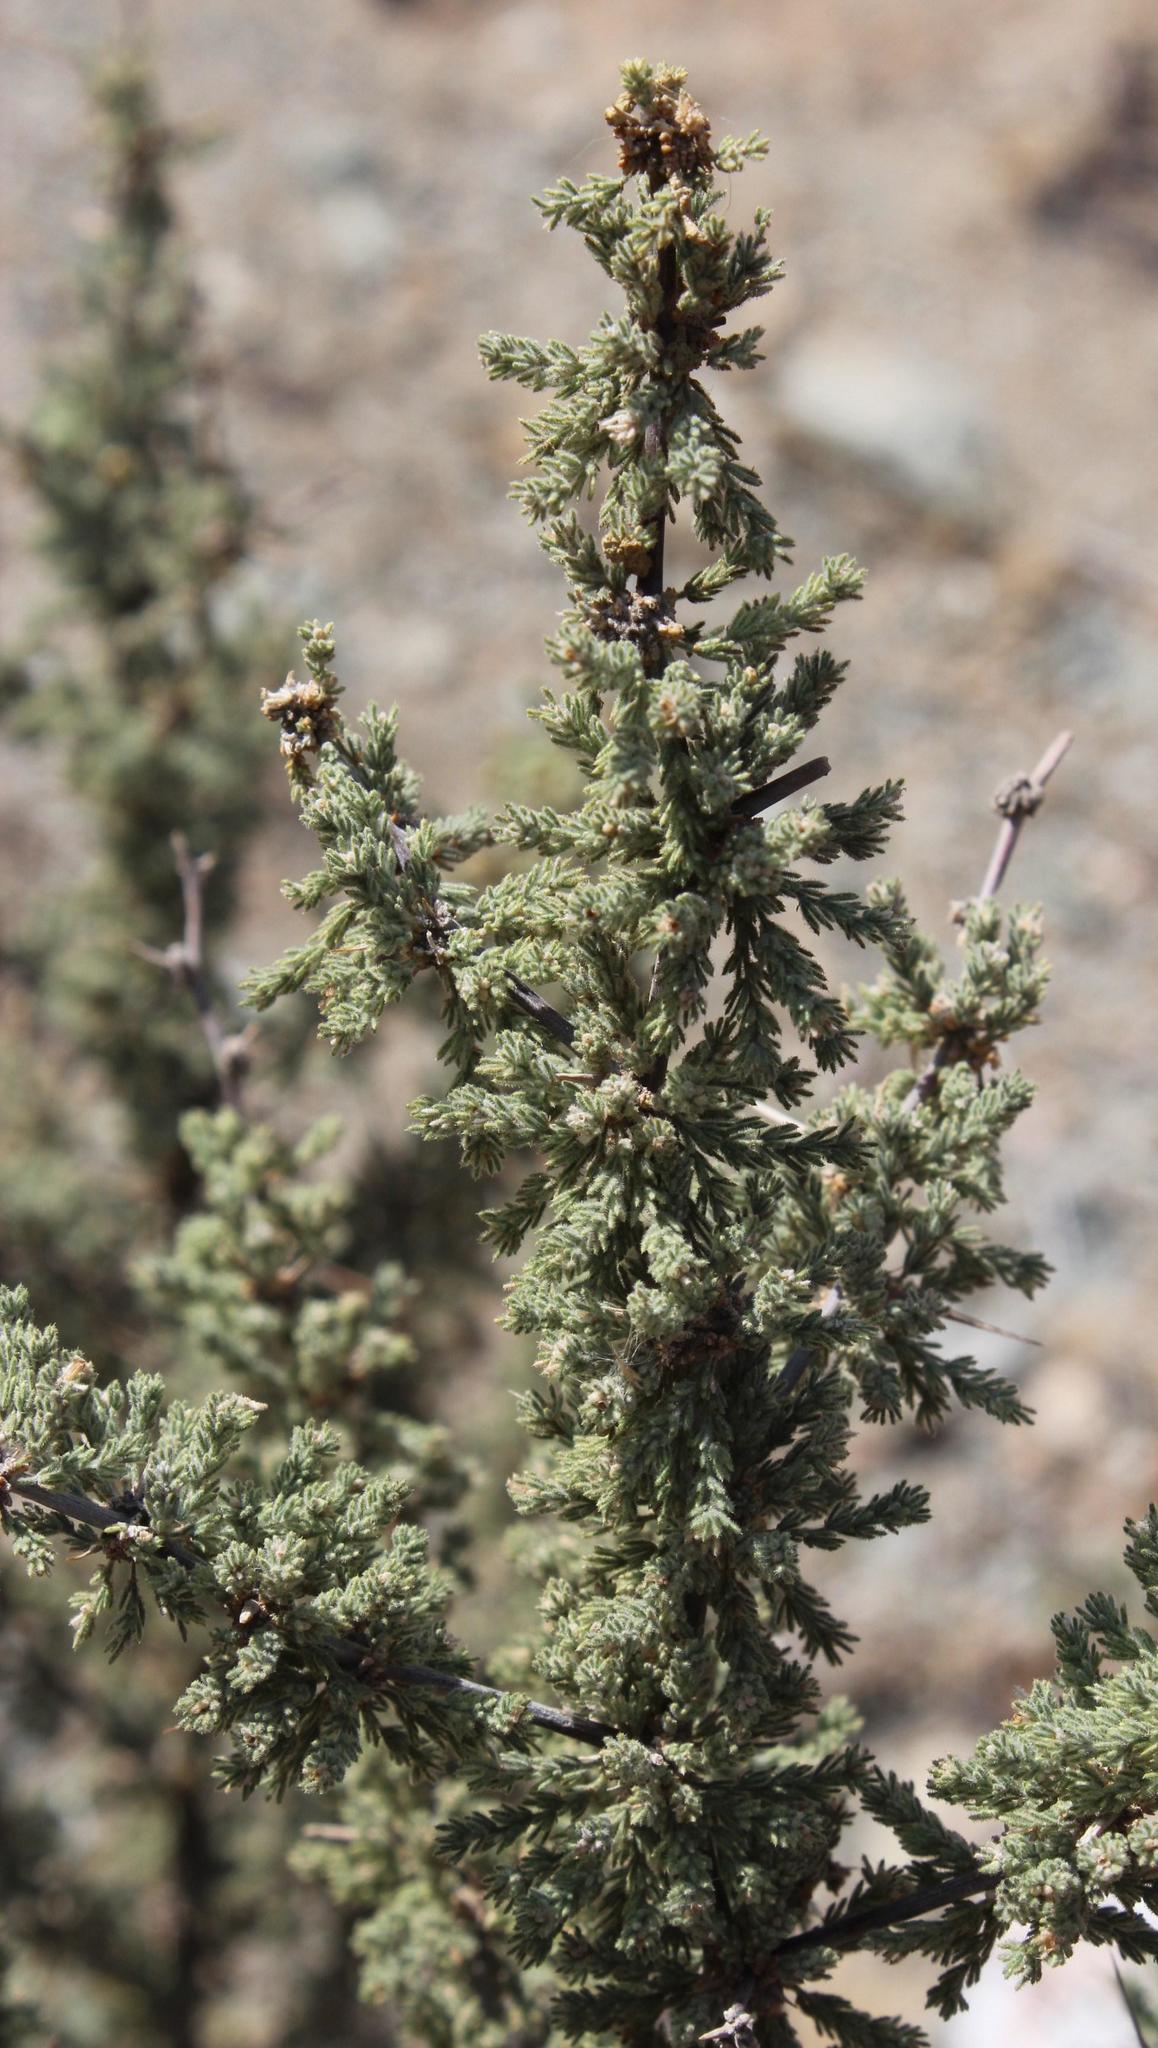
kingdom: Plantae
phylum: Tracheophyta
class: Liliopsida
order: Asparagales
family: Asparagaceae
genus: Asparagus
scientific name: Asparagus capensis
